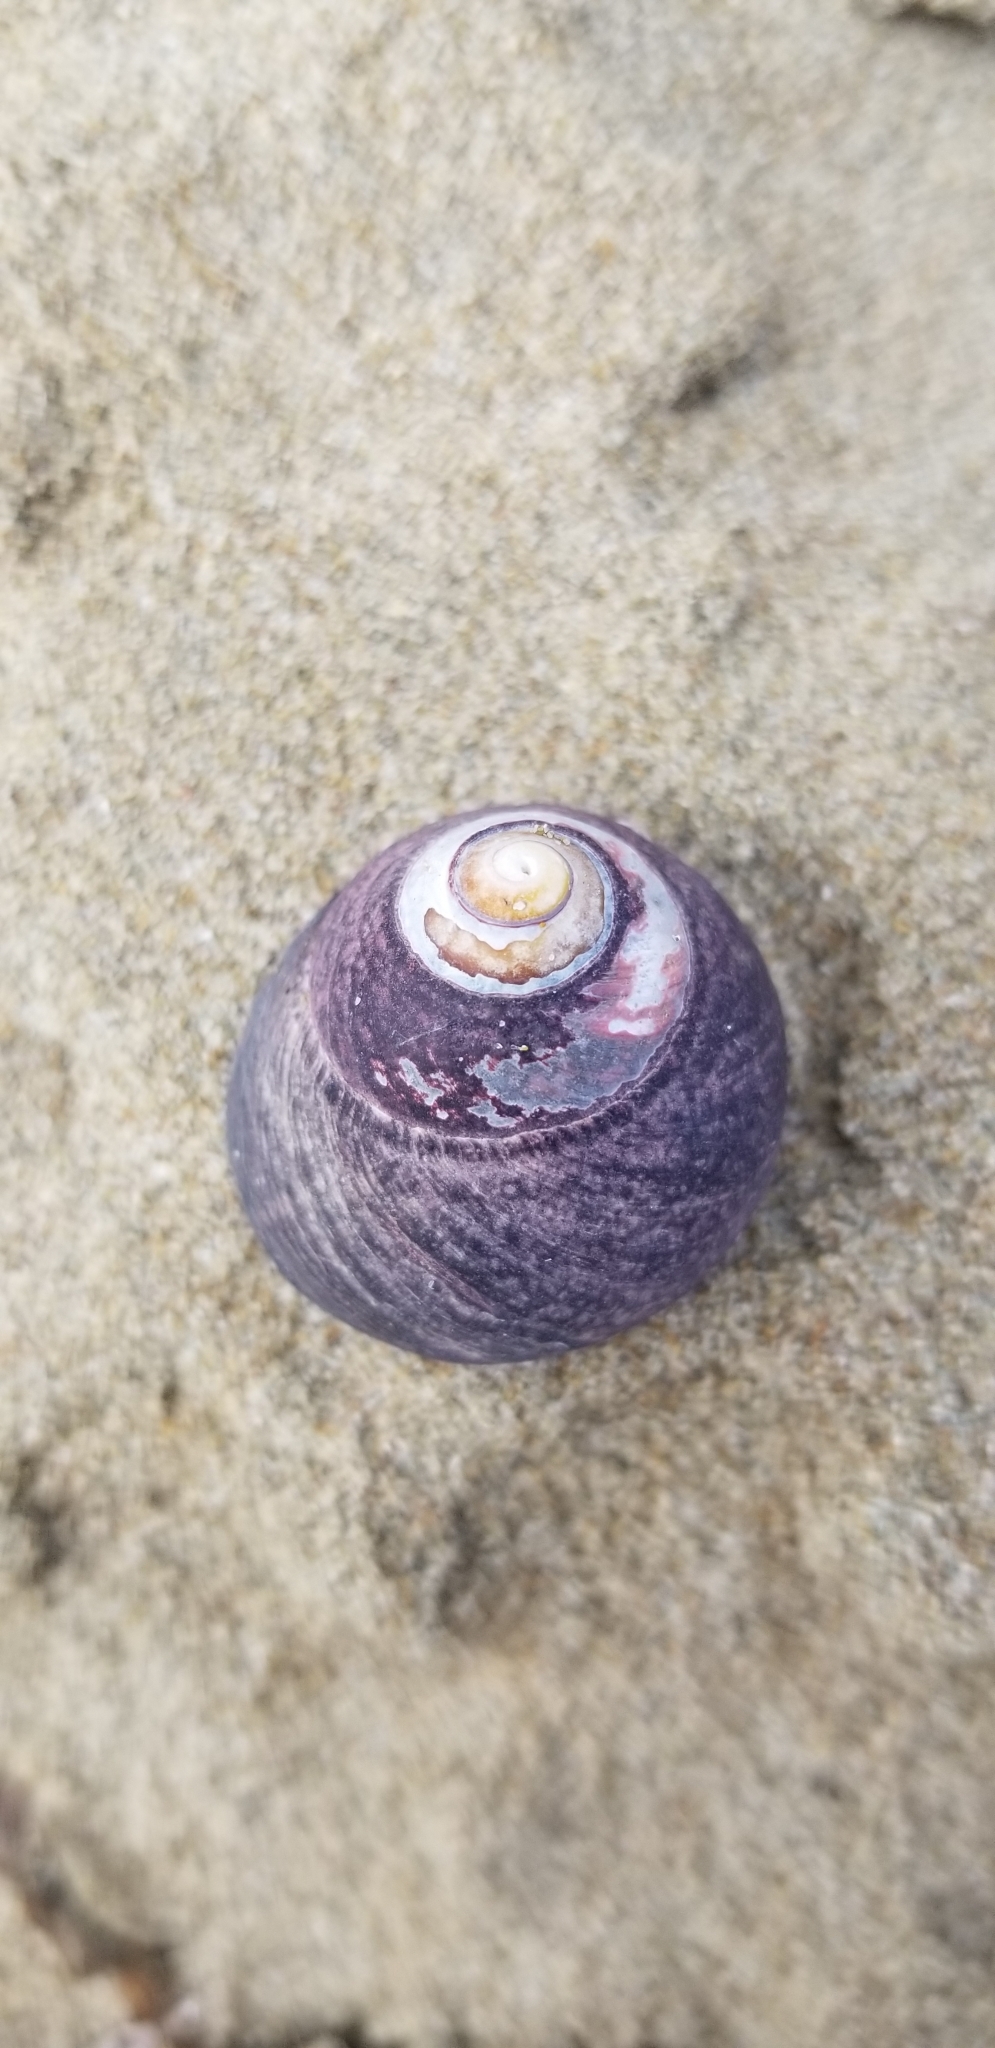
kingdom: Animalia
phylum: Mollusca
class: Gastropoda
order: Trochida
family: Tegulidae
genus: Tegula
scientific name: Tegula funebralis
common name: Black tegula
